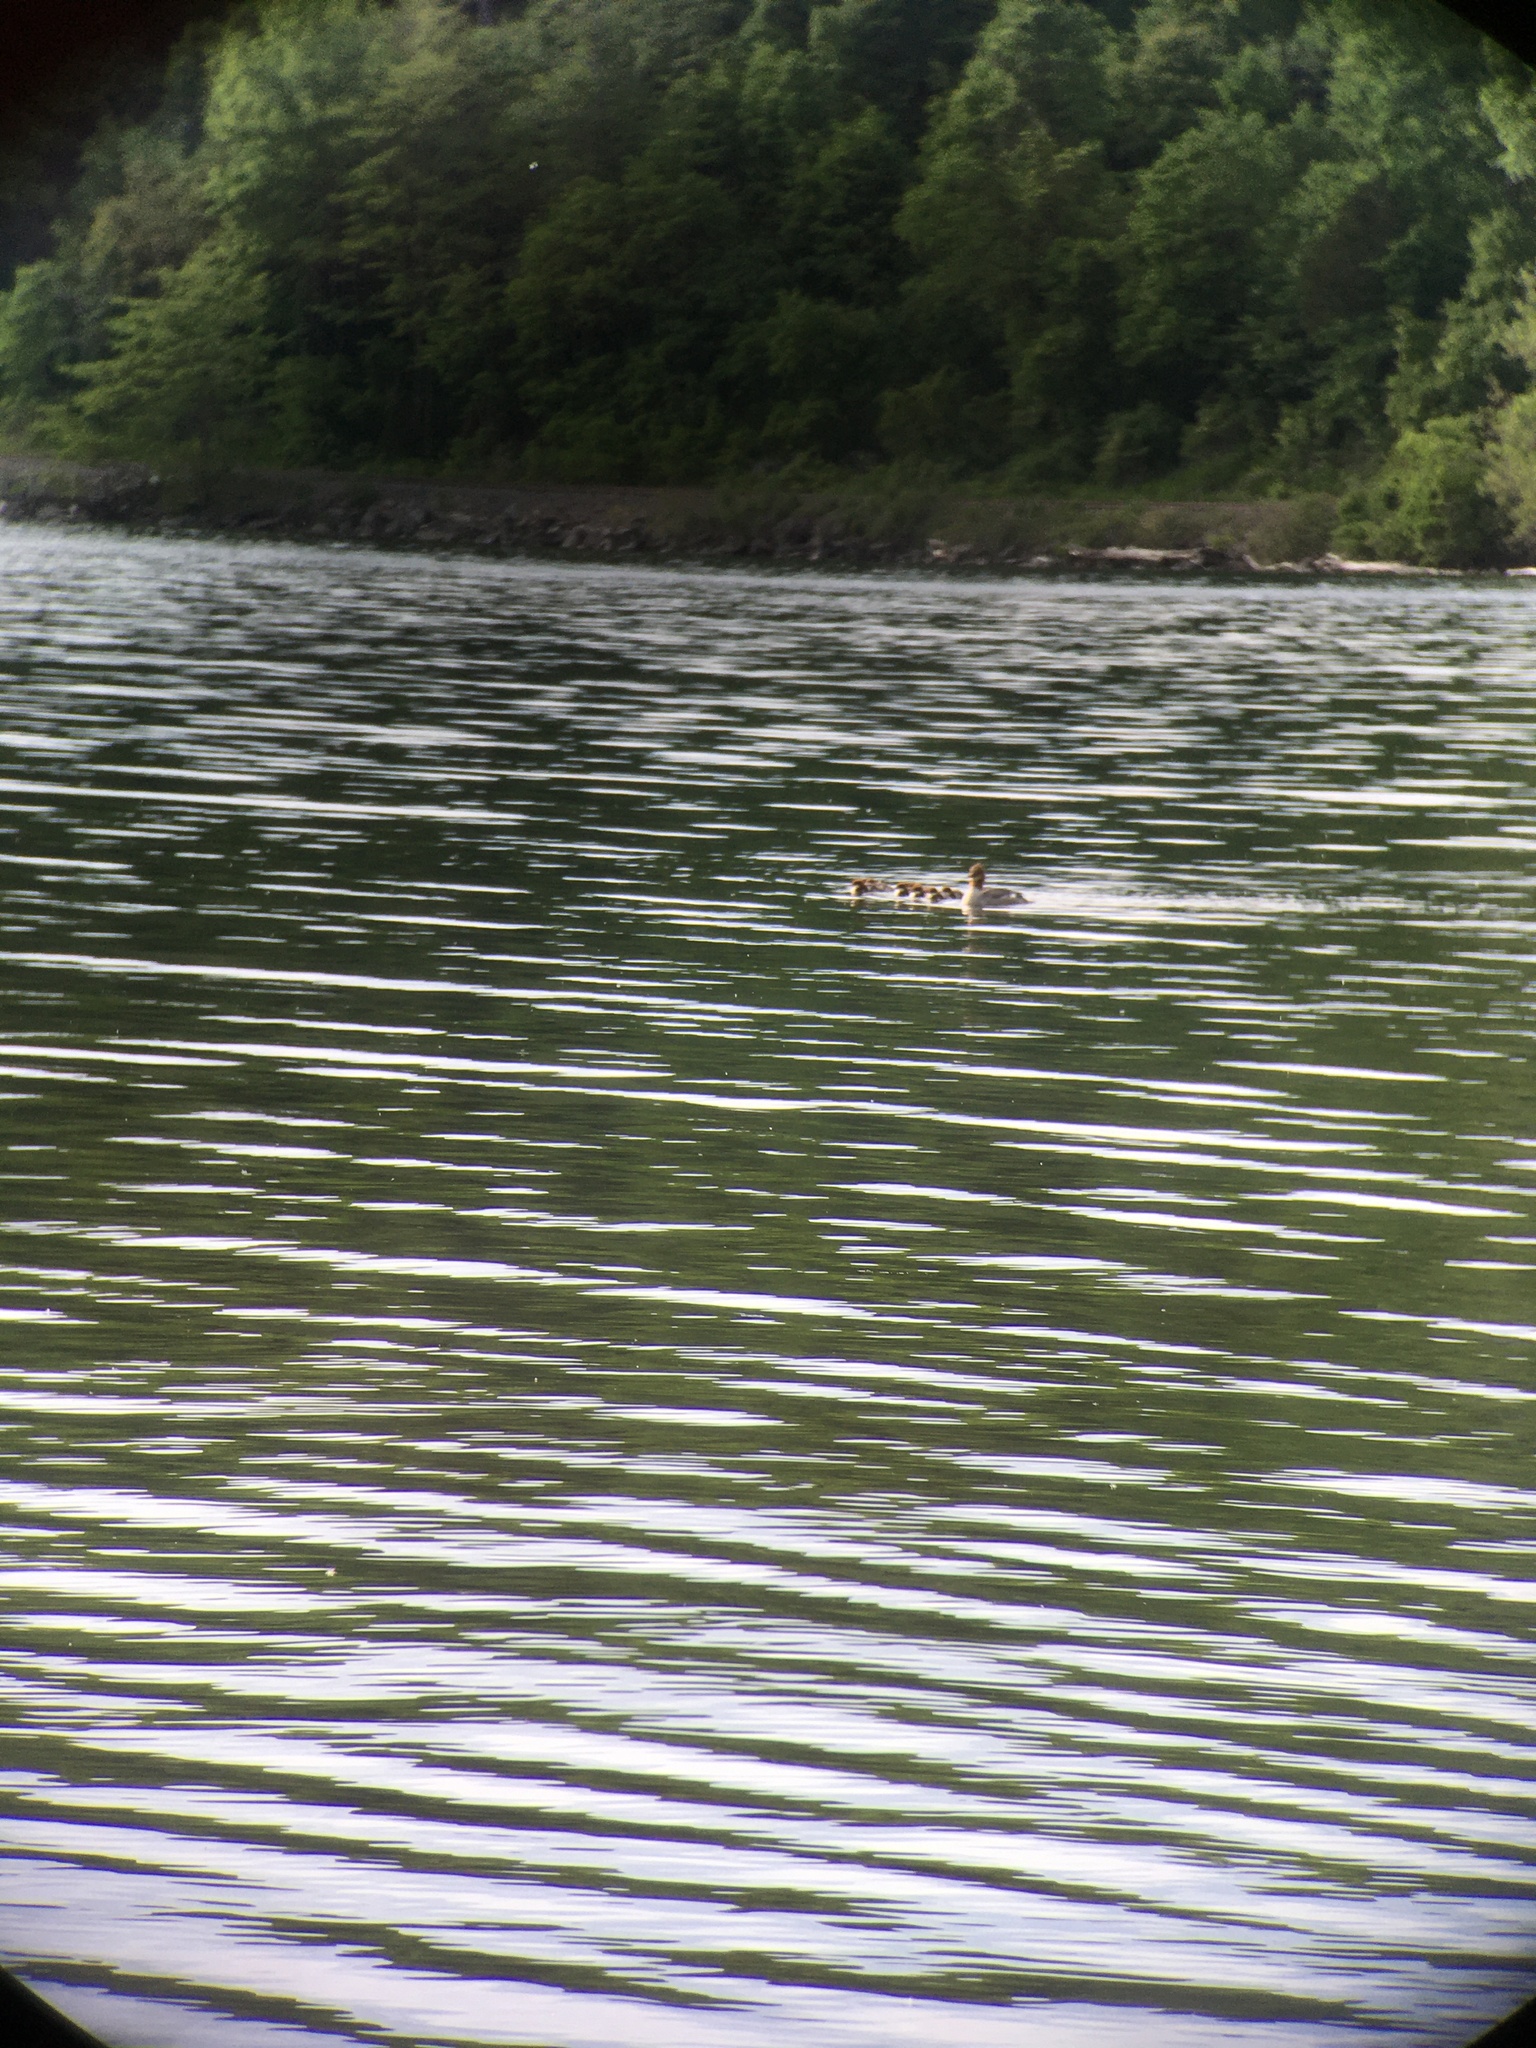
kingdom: Animalia
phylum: Chordata
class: Aves
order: Anseriformes
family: Anatidae
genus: Mergus
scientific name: Mergus merganser
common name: Common merganser
